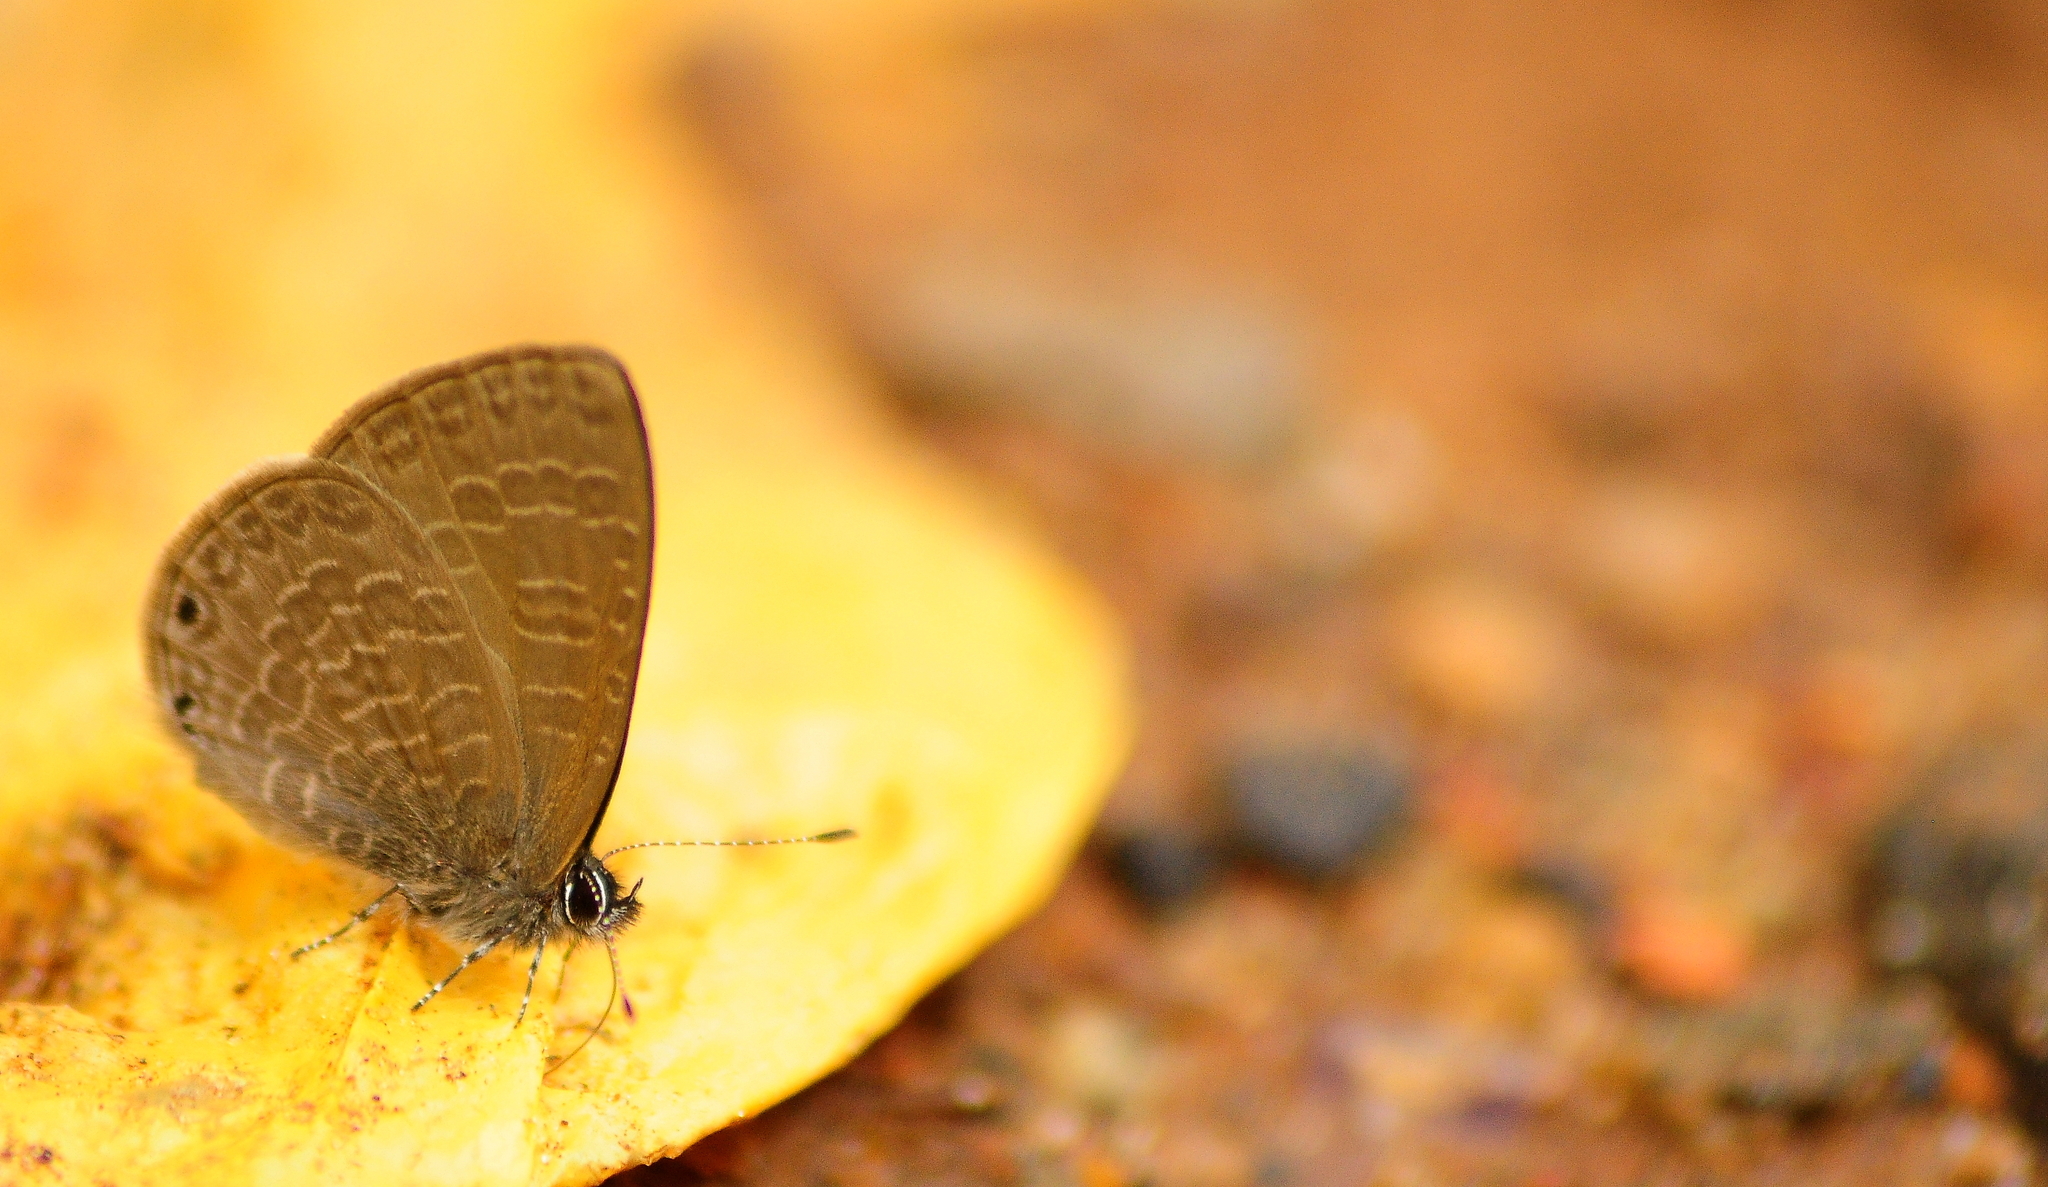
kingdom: Animalia
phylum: Arthropoda
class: Insecta
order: Lepidoptera
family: Lycaenidae
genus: Petrelaea
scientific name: Petrelaea dana
